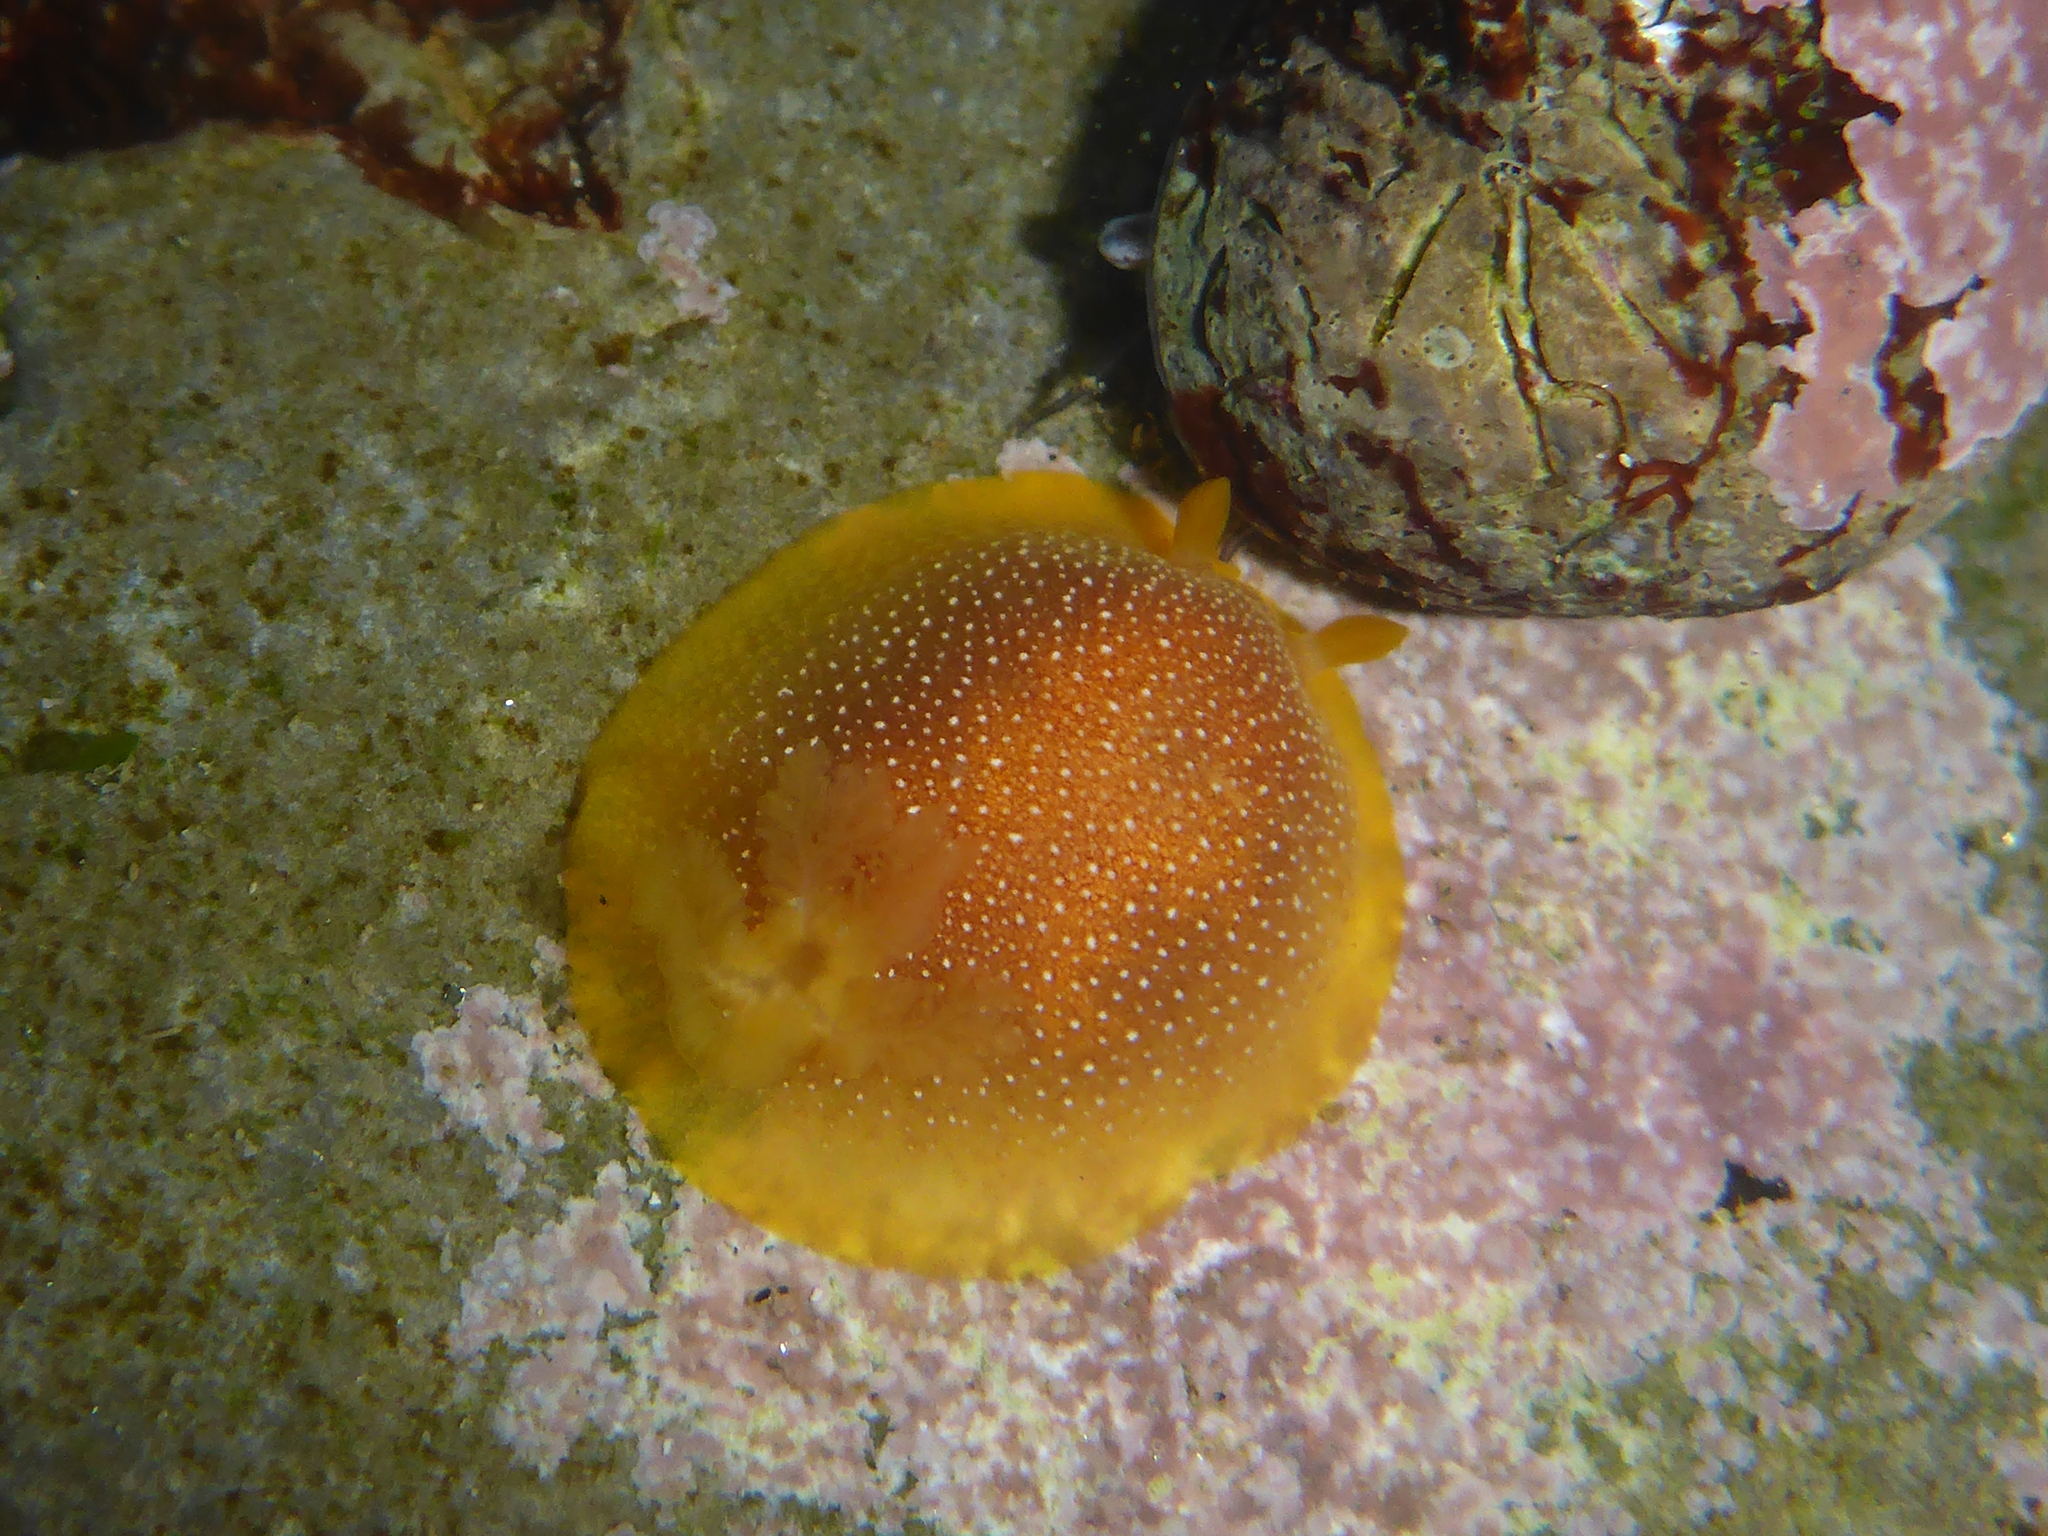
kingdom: Animalia
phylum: Mollusca
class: Gastropoda
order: Nudibranchia
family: Dendrodorididae
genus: Doriopsilla
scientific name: Doriopsilla gemela
